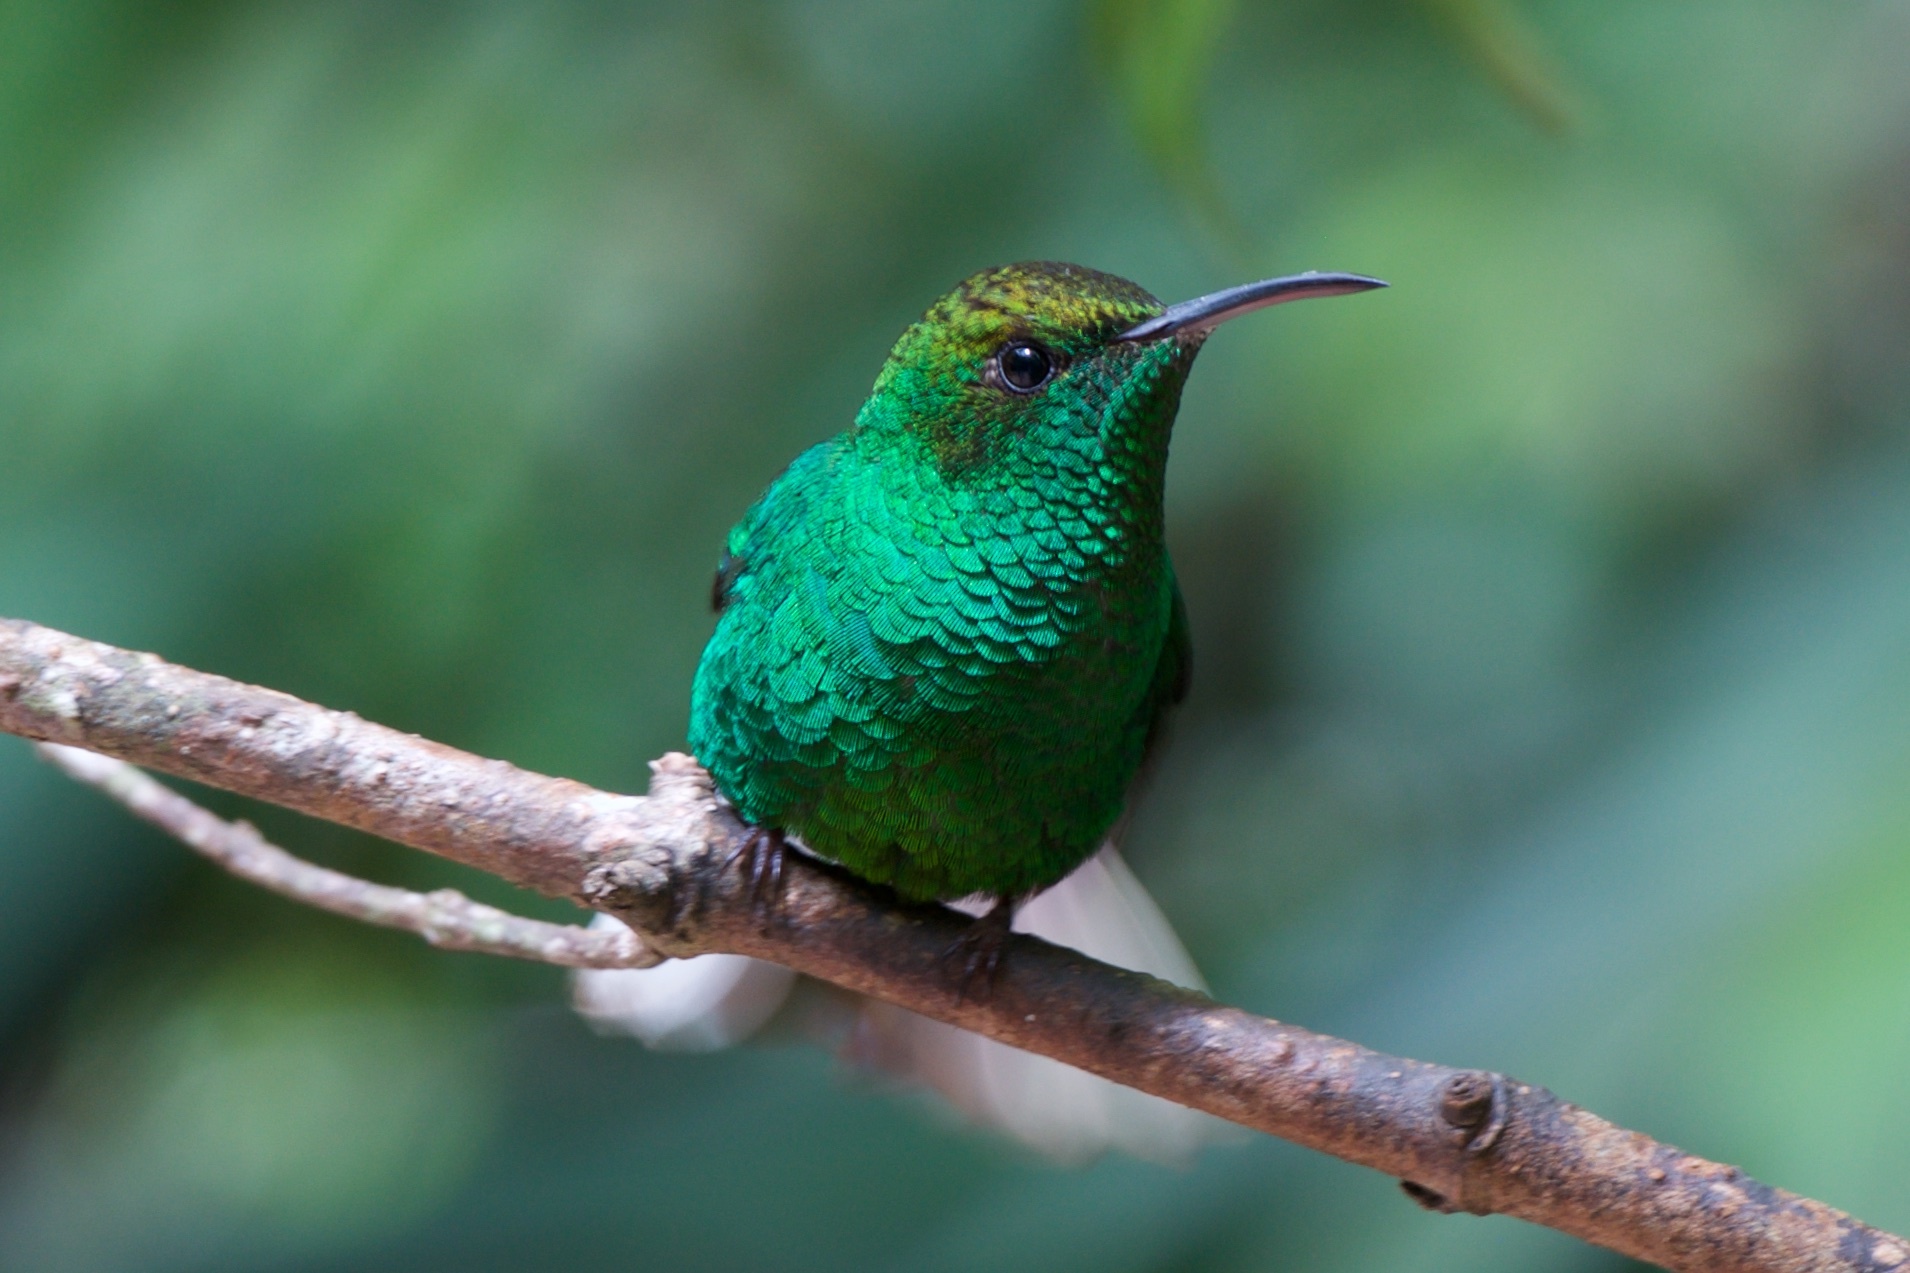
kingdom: Animalia
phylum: Chordata
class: Aves
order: Apodiformes
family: Trochilidae
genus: Microchera
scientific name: Microchera cupreiceps
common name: Coppery-headed emerald
